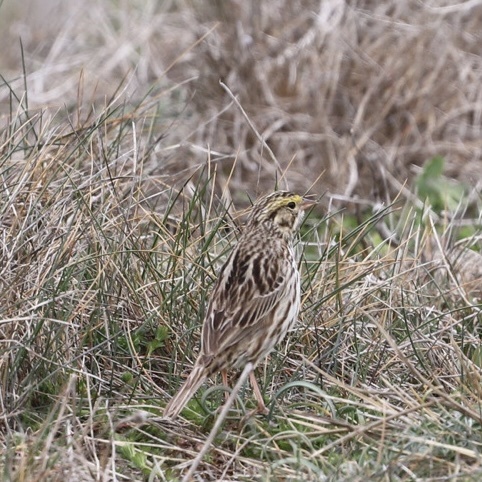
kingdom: Animalia
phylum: Chordata
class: Aves
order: Passeriformes
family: Passerellidae
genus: Passerculus
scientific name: Passerculus sandwichensis
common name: Savannah sparrow
